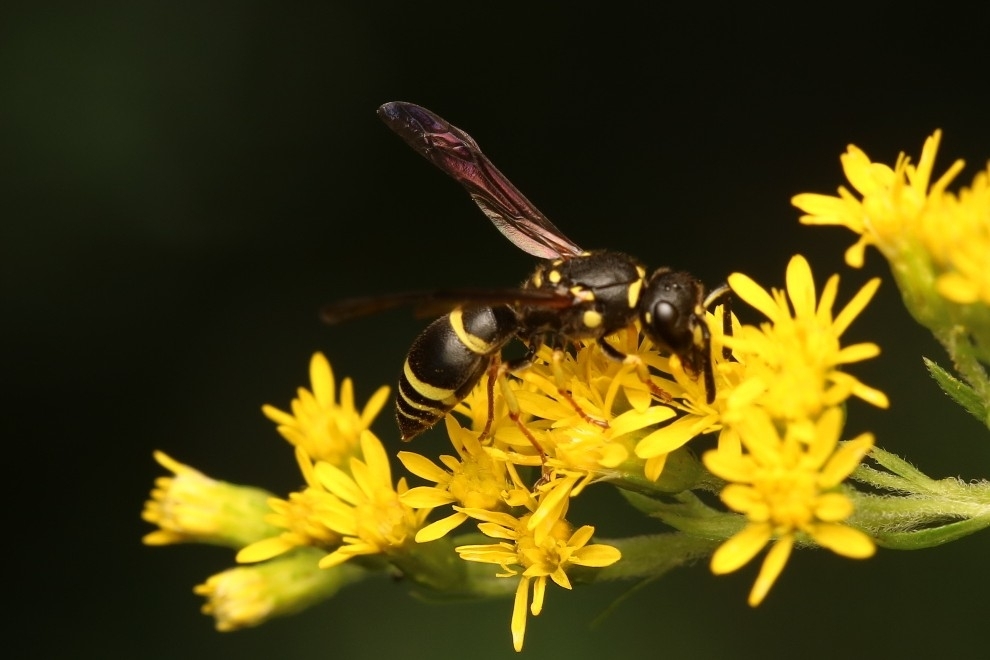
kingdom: Animalia
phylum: Arthropoda
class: Insecta
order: Hymenoptera
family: Vespidae
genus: Ancistrocerus
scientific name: Ancistrocerus adiabatus
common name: Bramble mason wasp
